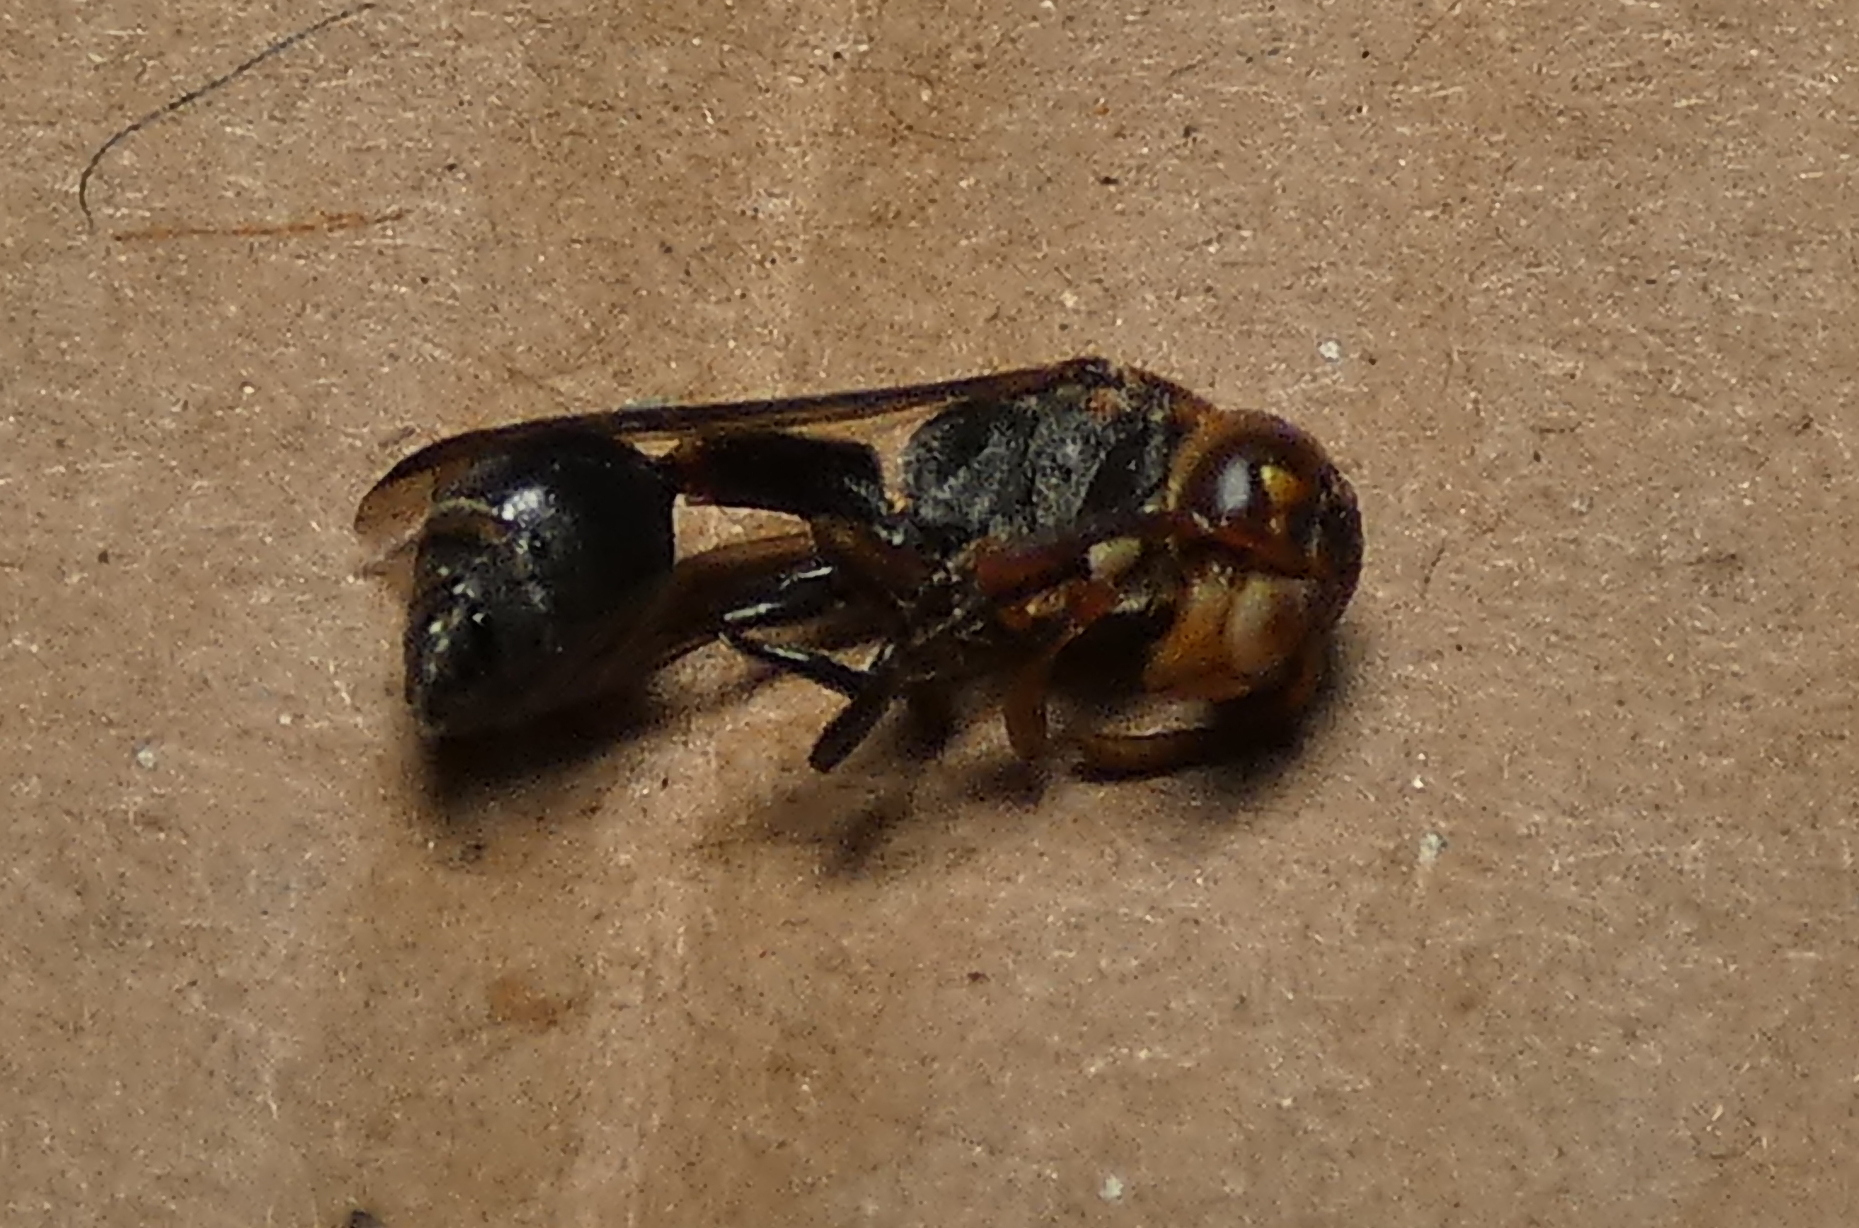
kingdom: Animalia
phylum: Arthropoda
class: Insecta
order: Hymenoptera
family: Eumenidae
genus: Zethus
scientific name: Zethus miniatus
